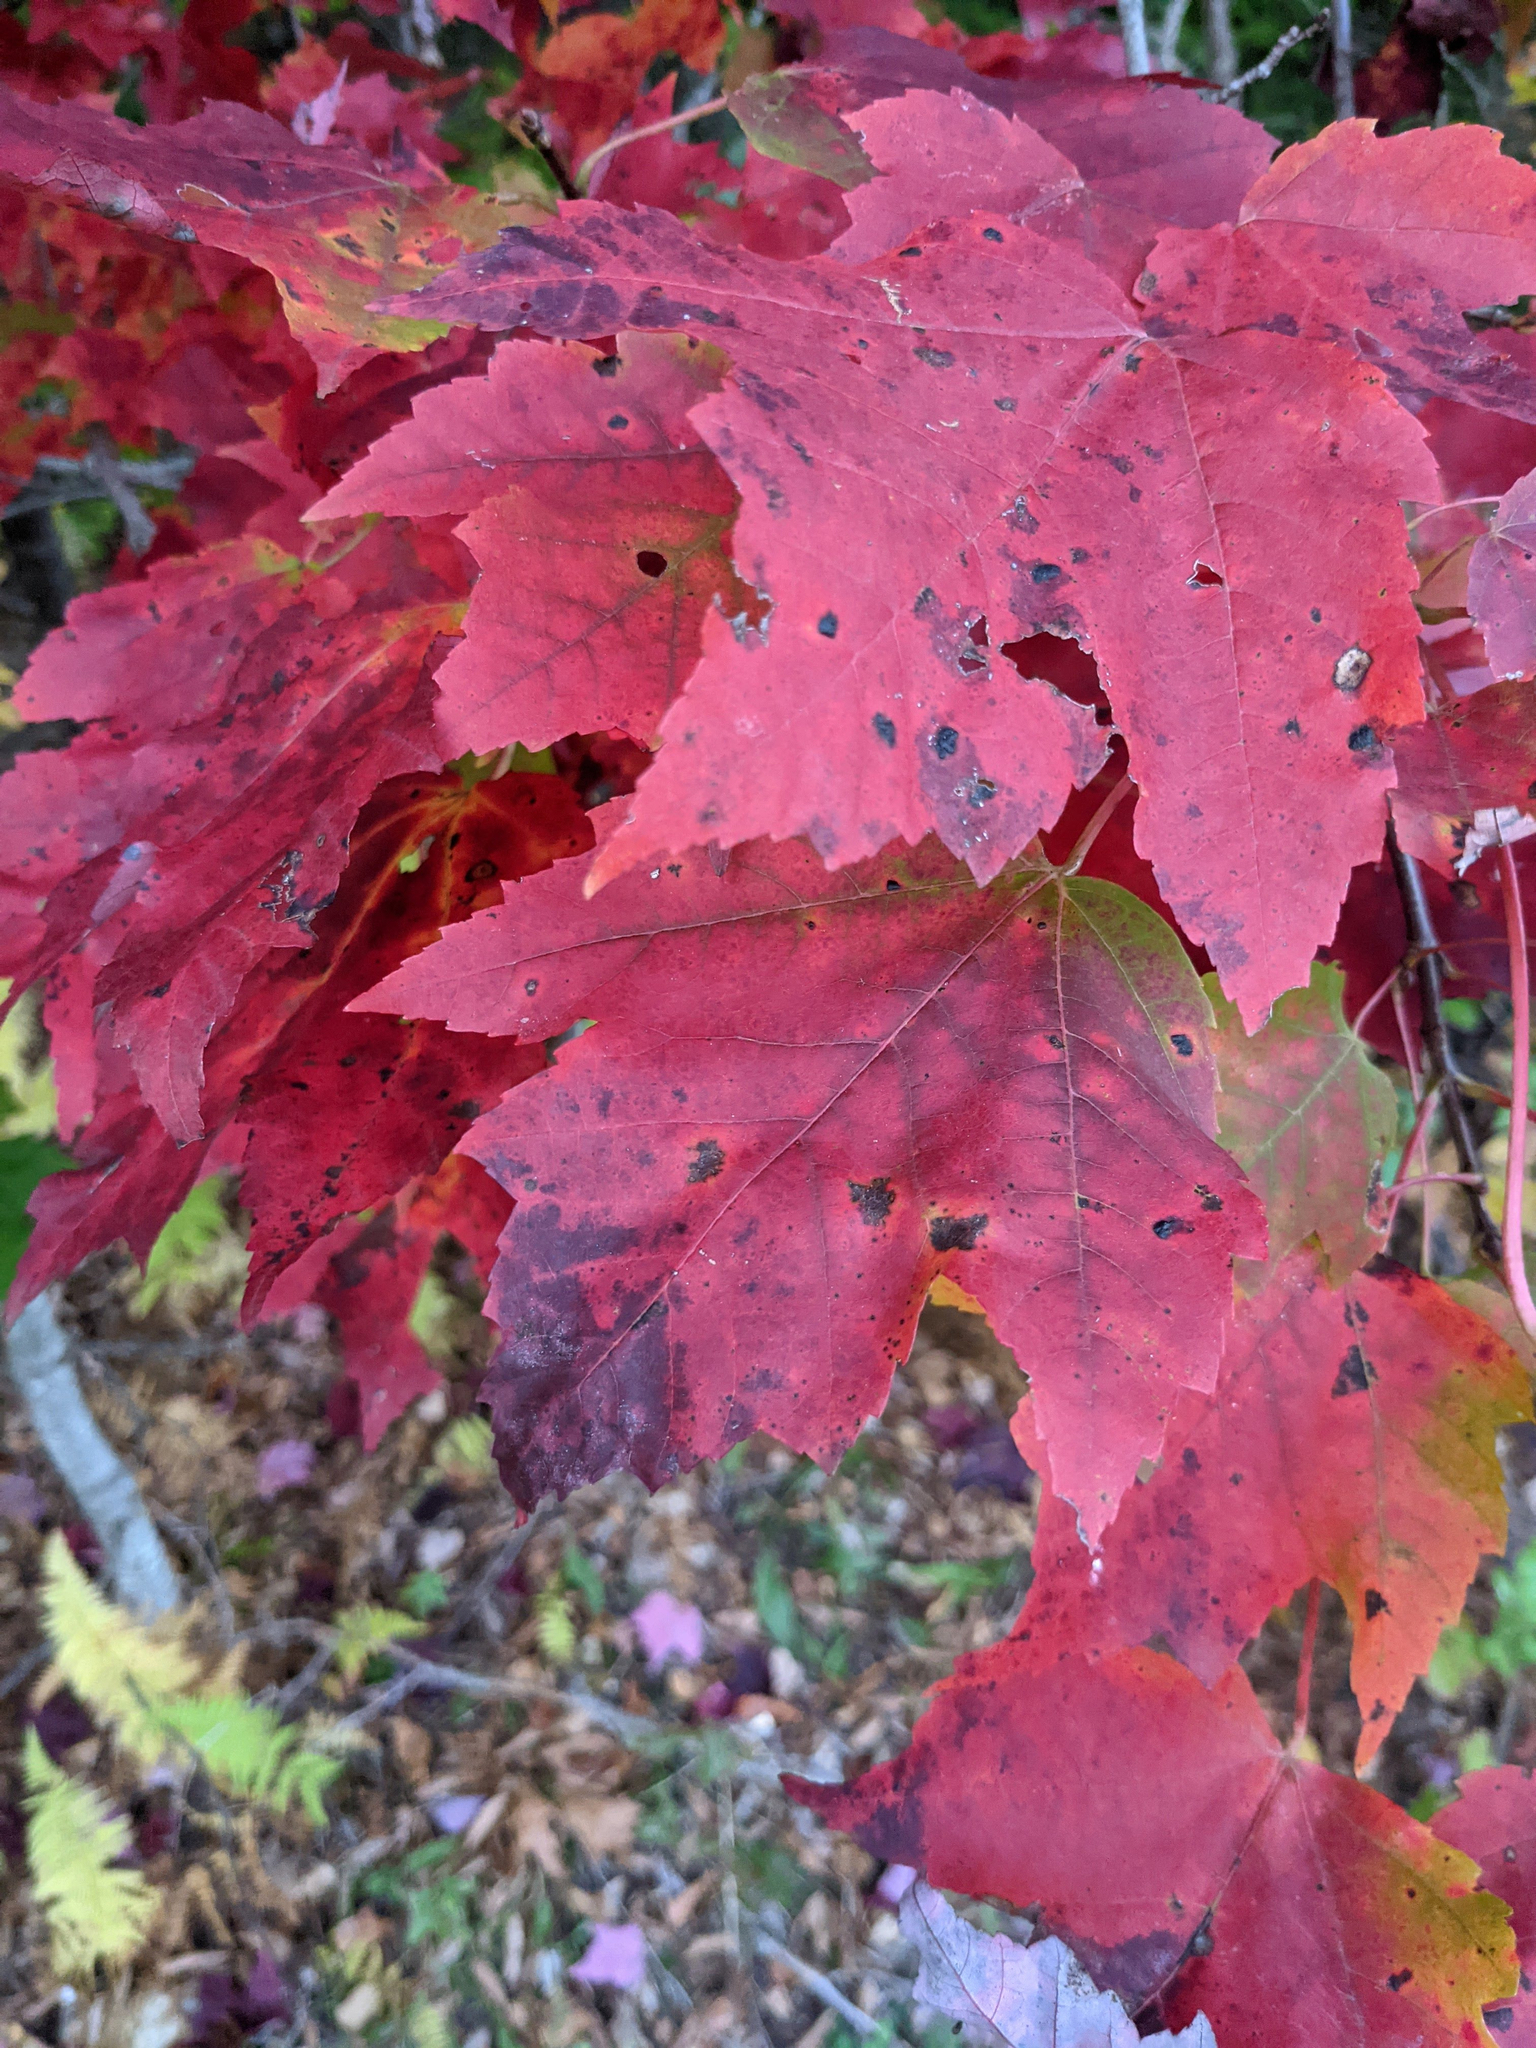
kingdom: Plantae
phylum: Tracheophyta
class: Magnoliopsida
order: Sapindales
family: Sapindaceae
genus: Acer
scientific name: Acer rubrum
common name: Red maple
